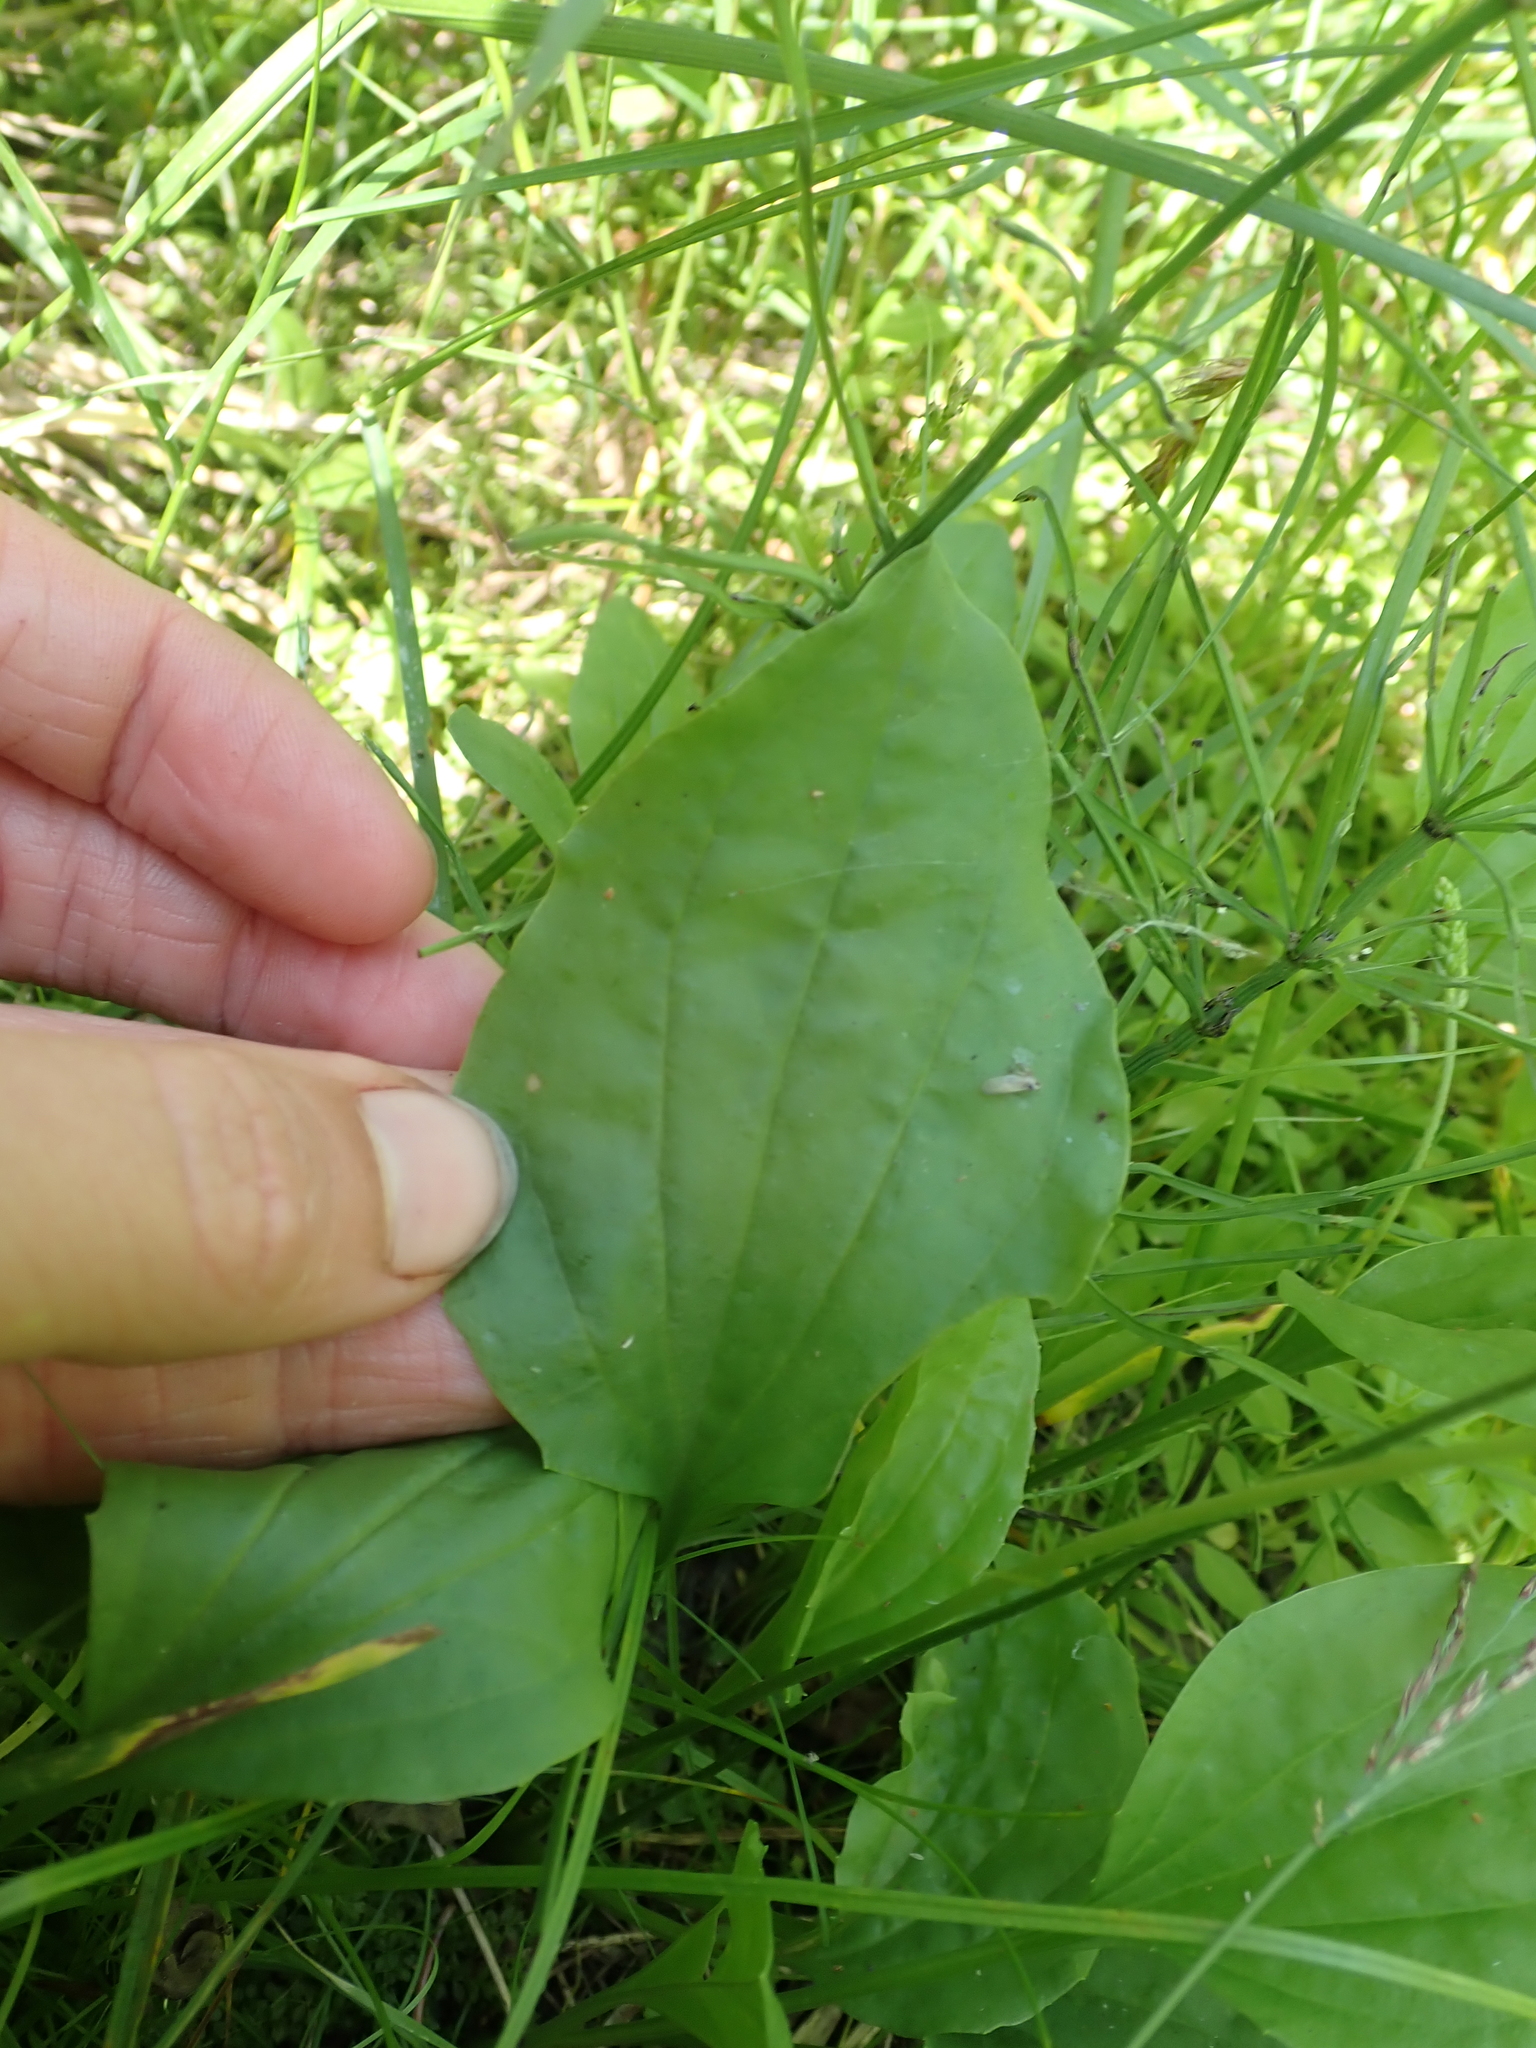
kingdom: Plantae
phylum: Tracheophyta
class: Magnoliopsida
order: Lamiales
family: Plantaginaceae
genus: Plantago
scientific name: Plantago major
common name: Common plantain
